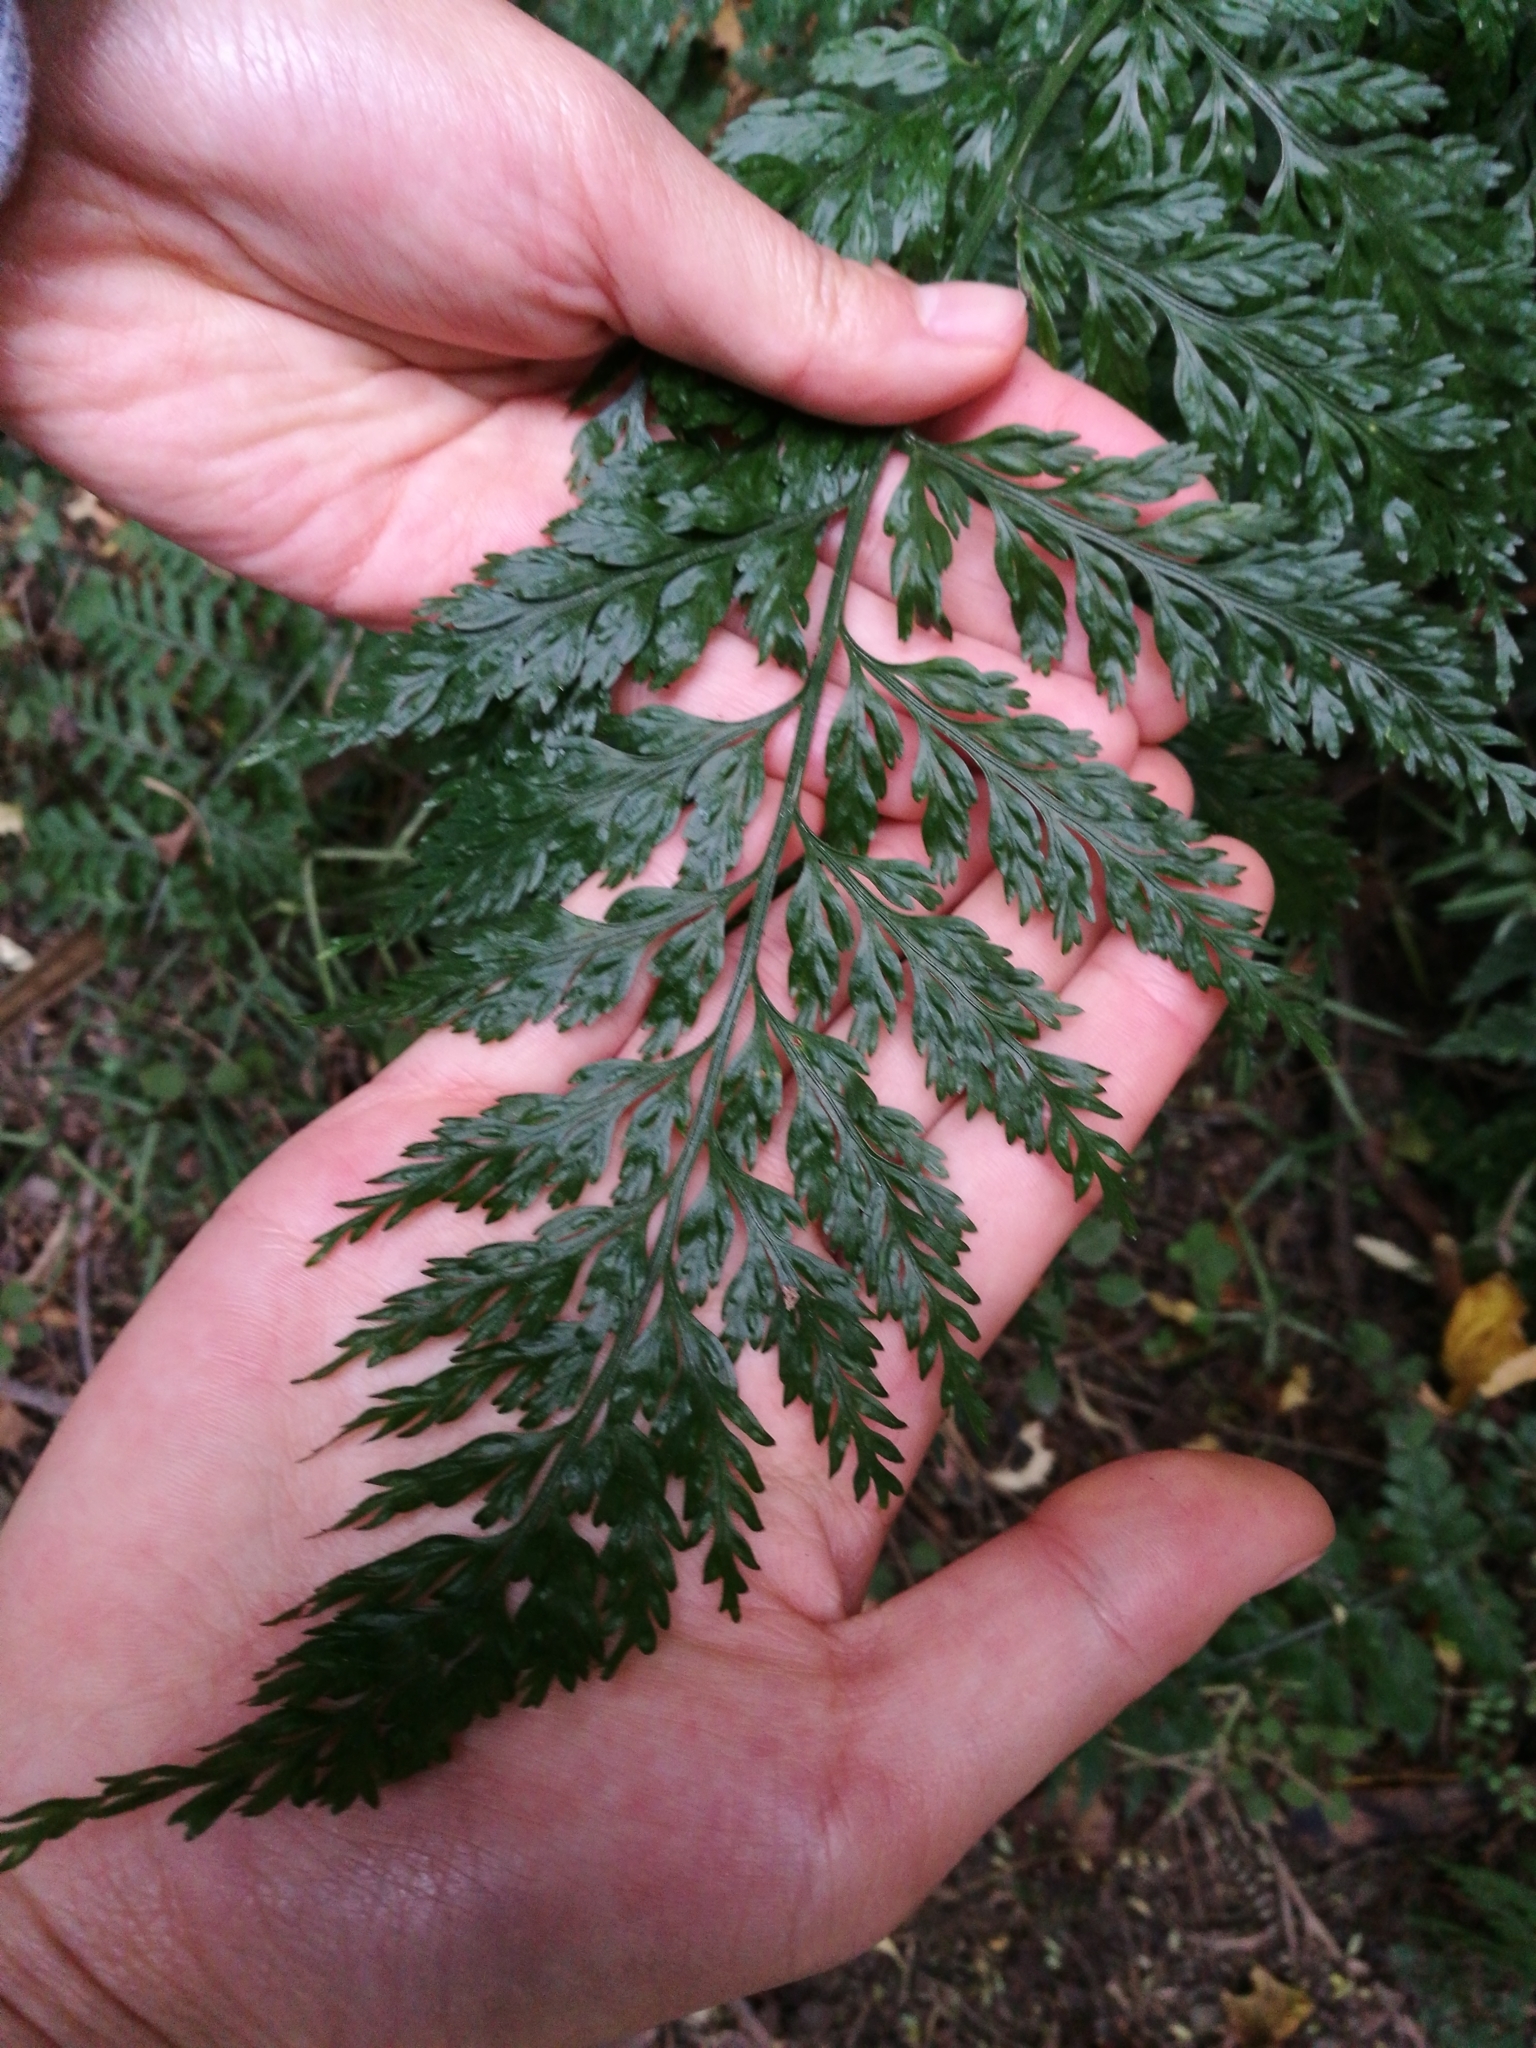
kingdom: Plantae
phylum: Tracheophyta
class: Polypodiopsida
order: Polypodiales
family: Aspleniaceae
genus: Asplenium
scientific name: Asplenium
